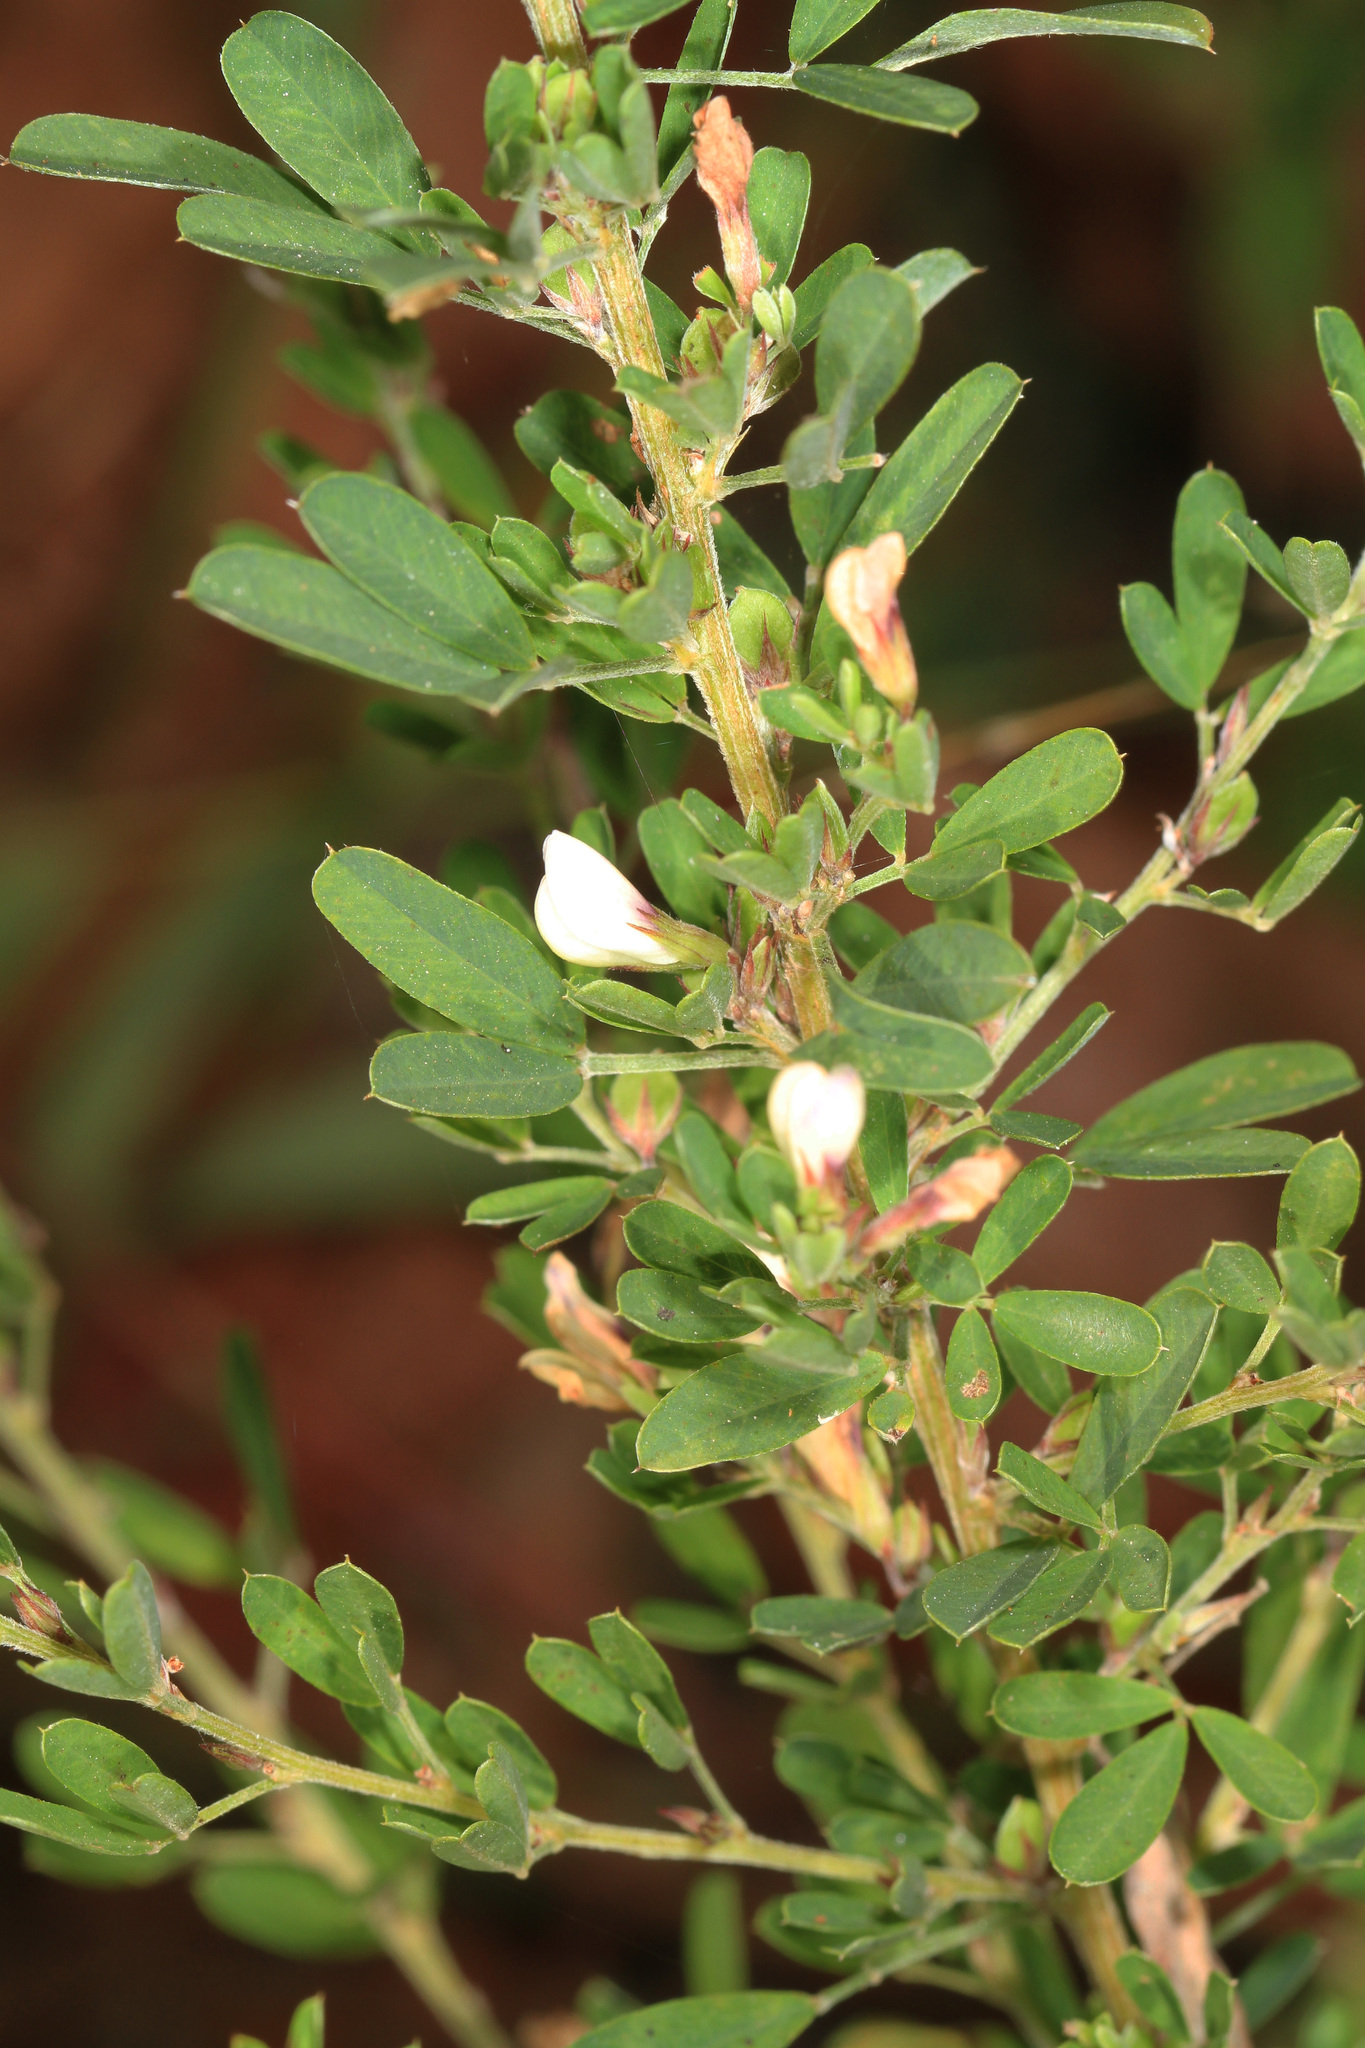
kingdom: Plantae
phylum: Tracheophyta
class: Magnoliopsida
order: Fabales
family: Fabaceae
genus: Lespedeza
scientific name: Lespedeza cuneata
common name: Chinese bush-clover
